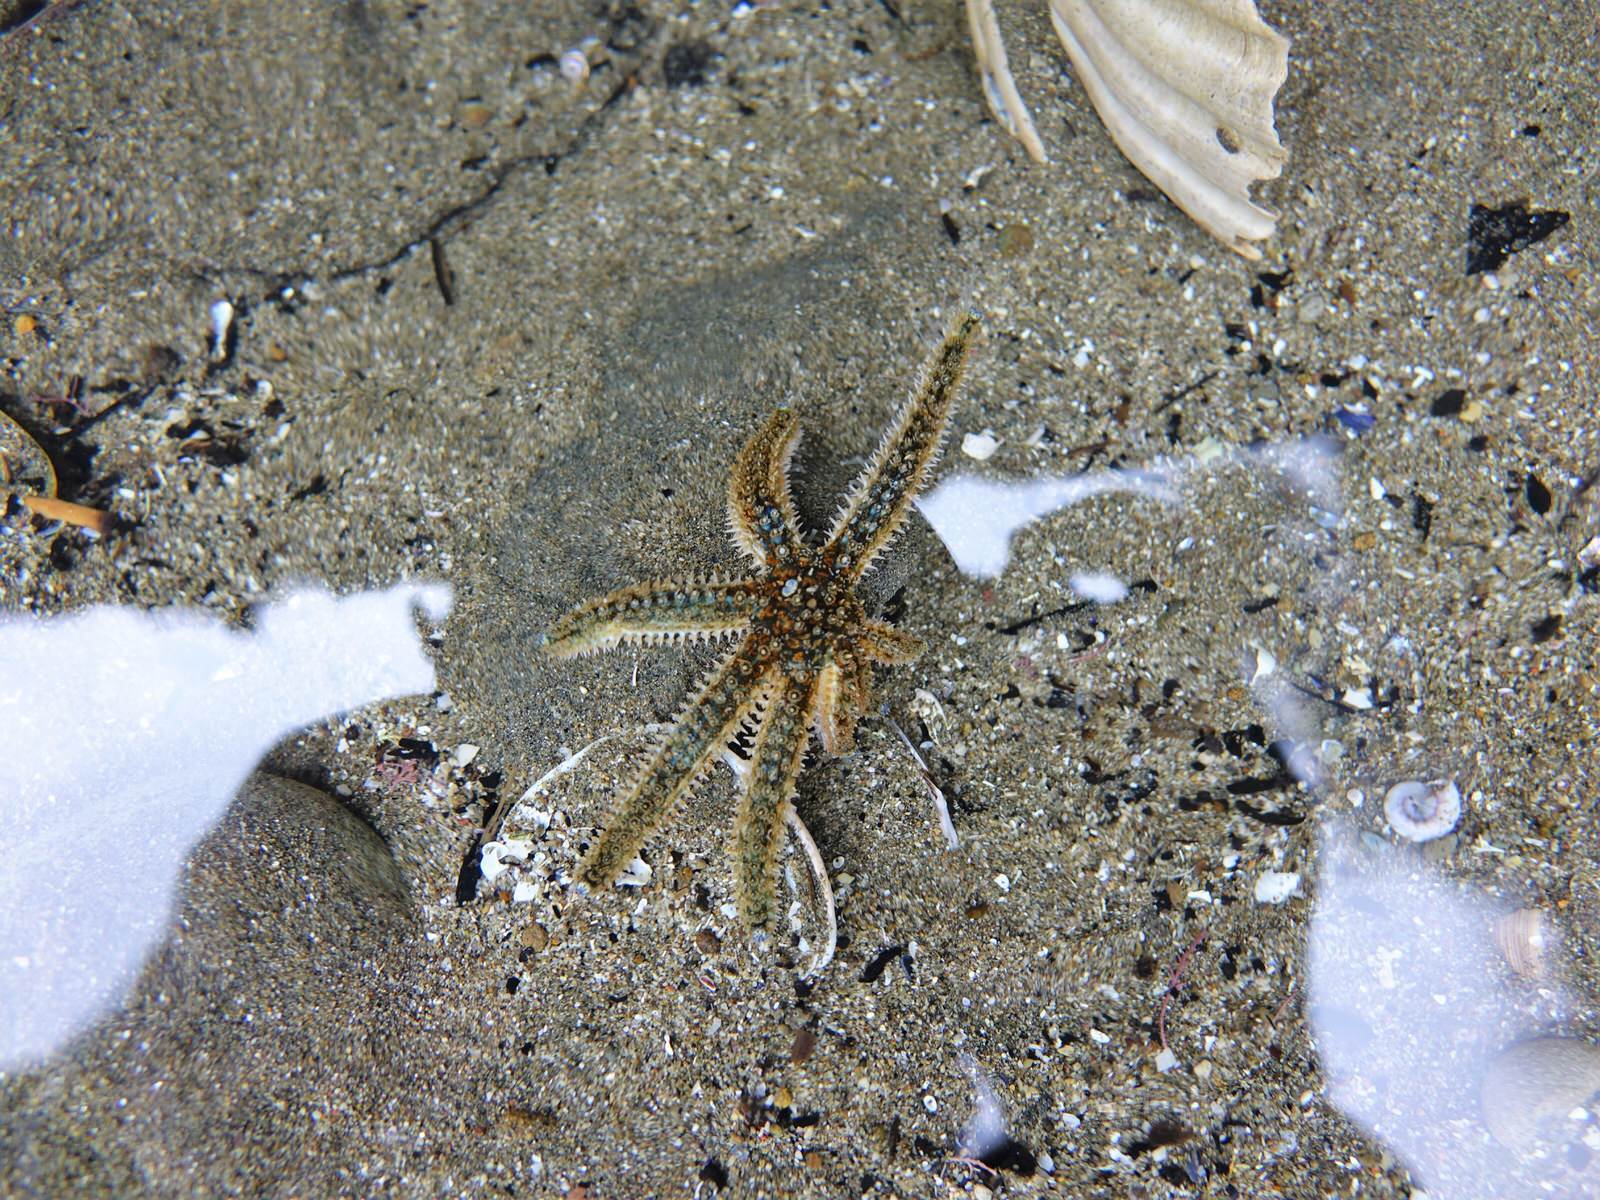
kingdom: Animalia
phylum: Echinodermata
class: Asteroidea
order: Forcipulatida
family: Asteriidae
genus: Coscinasterias
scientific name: Coscinasterias muricata
